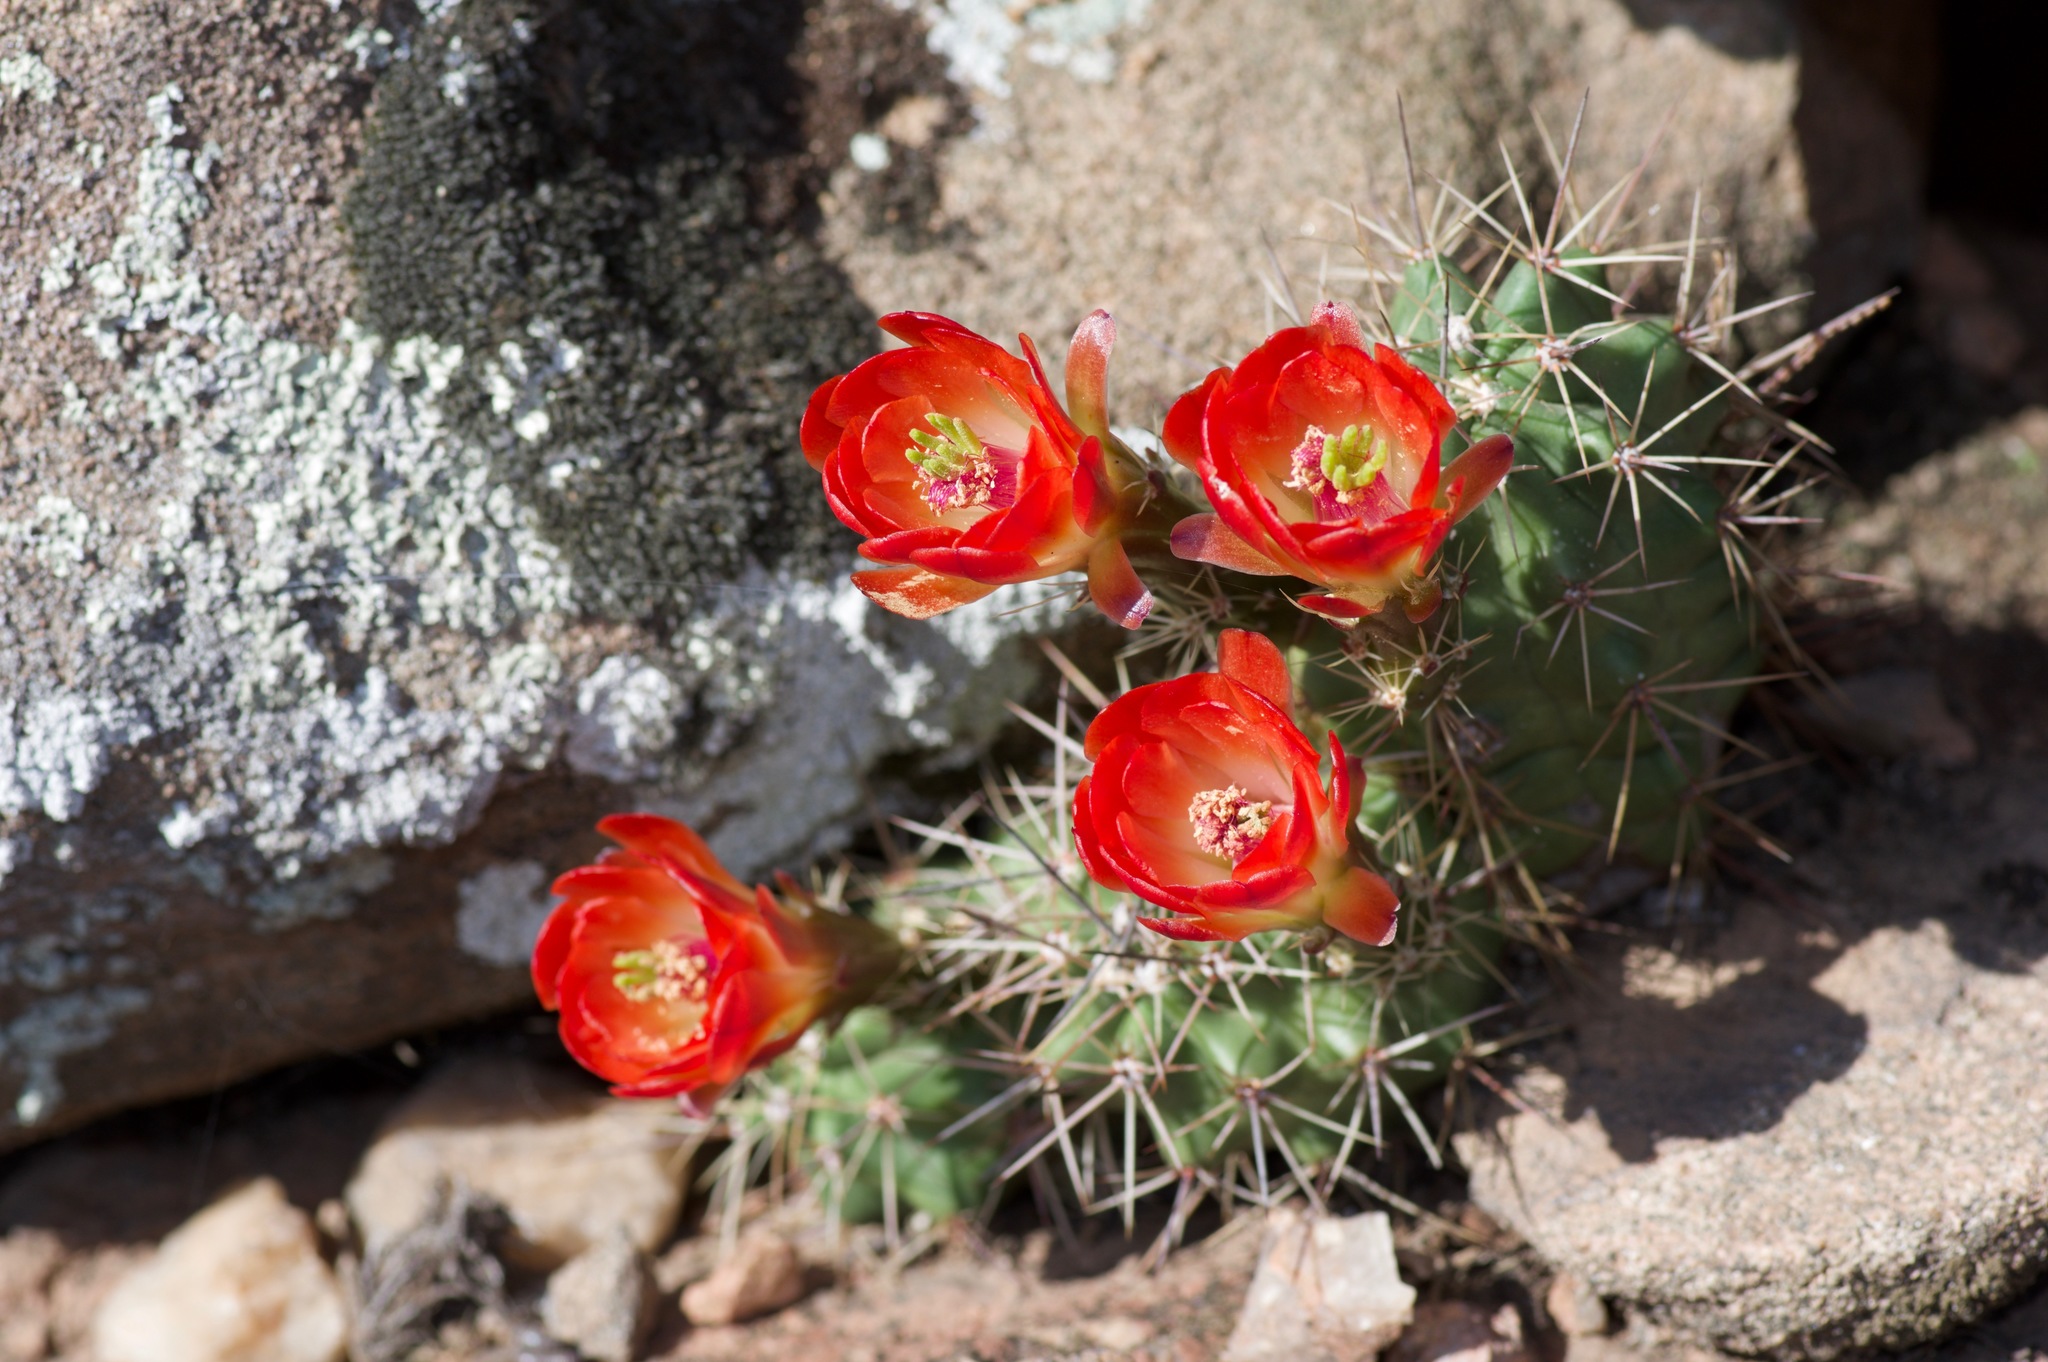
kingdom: Plantae
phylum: Tracheophyta
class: Magnoliopsida
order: Caryophyllales
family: Cactaceae
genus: Echinocereus
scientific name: Echinocereus coccineus
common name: Scarlet hedgehog cactus
